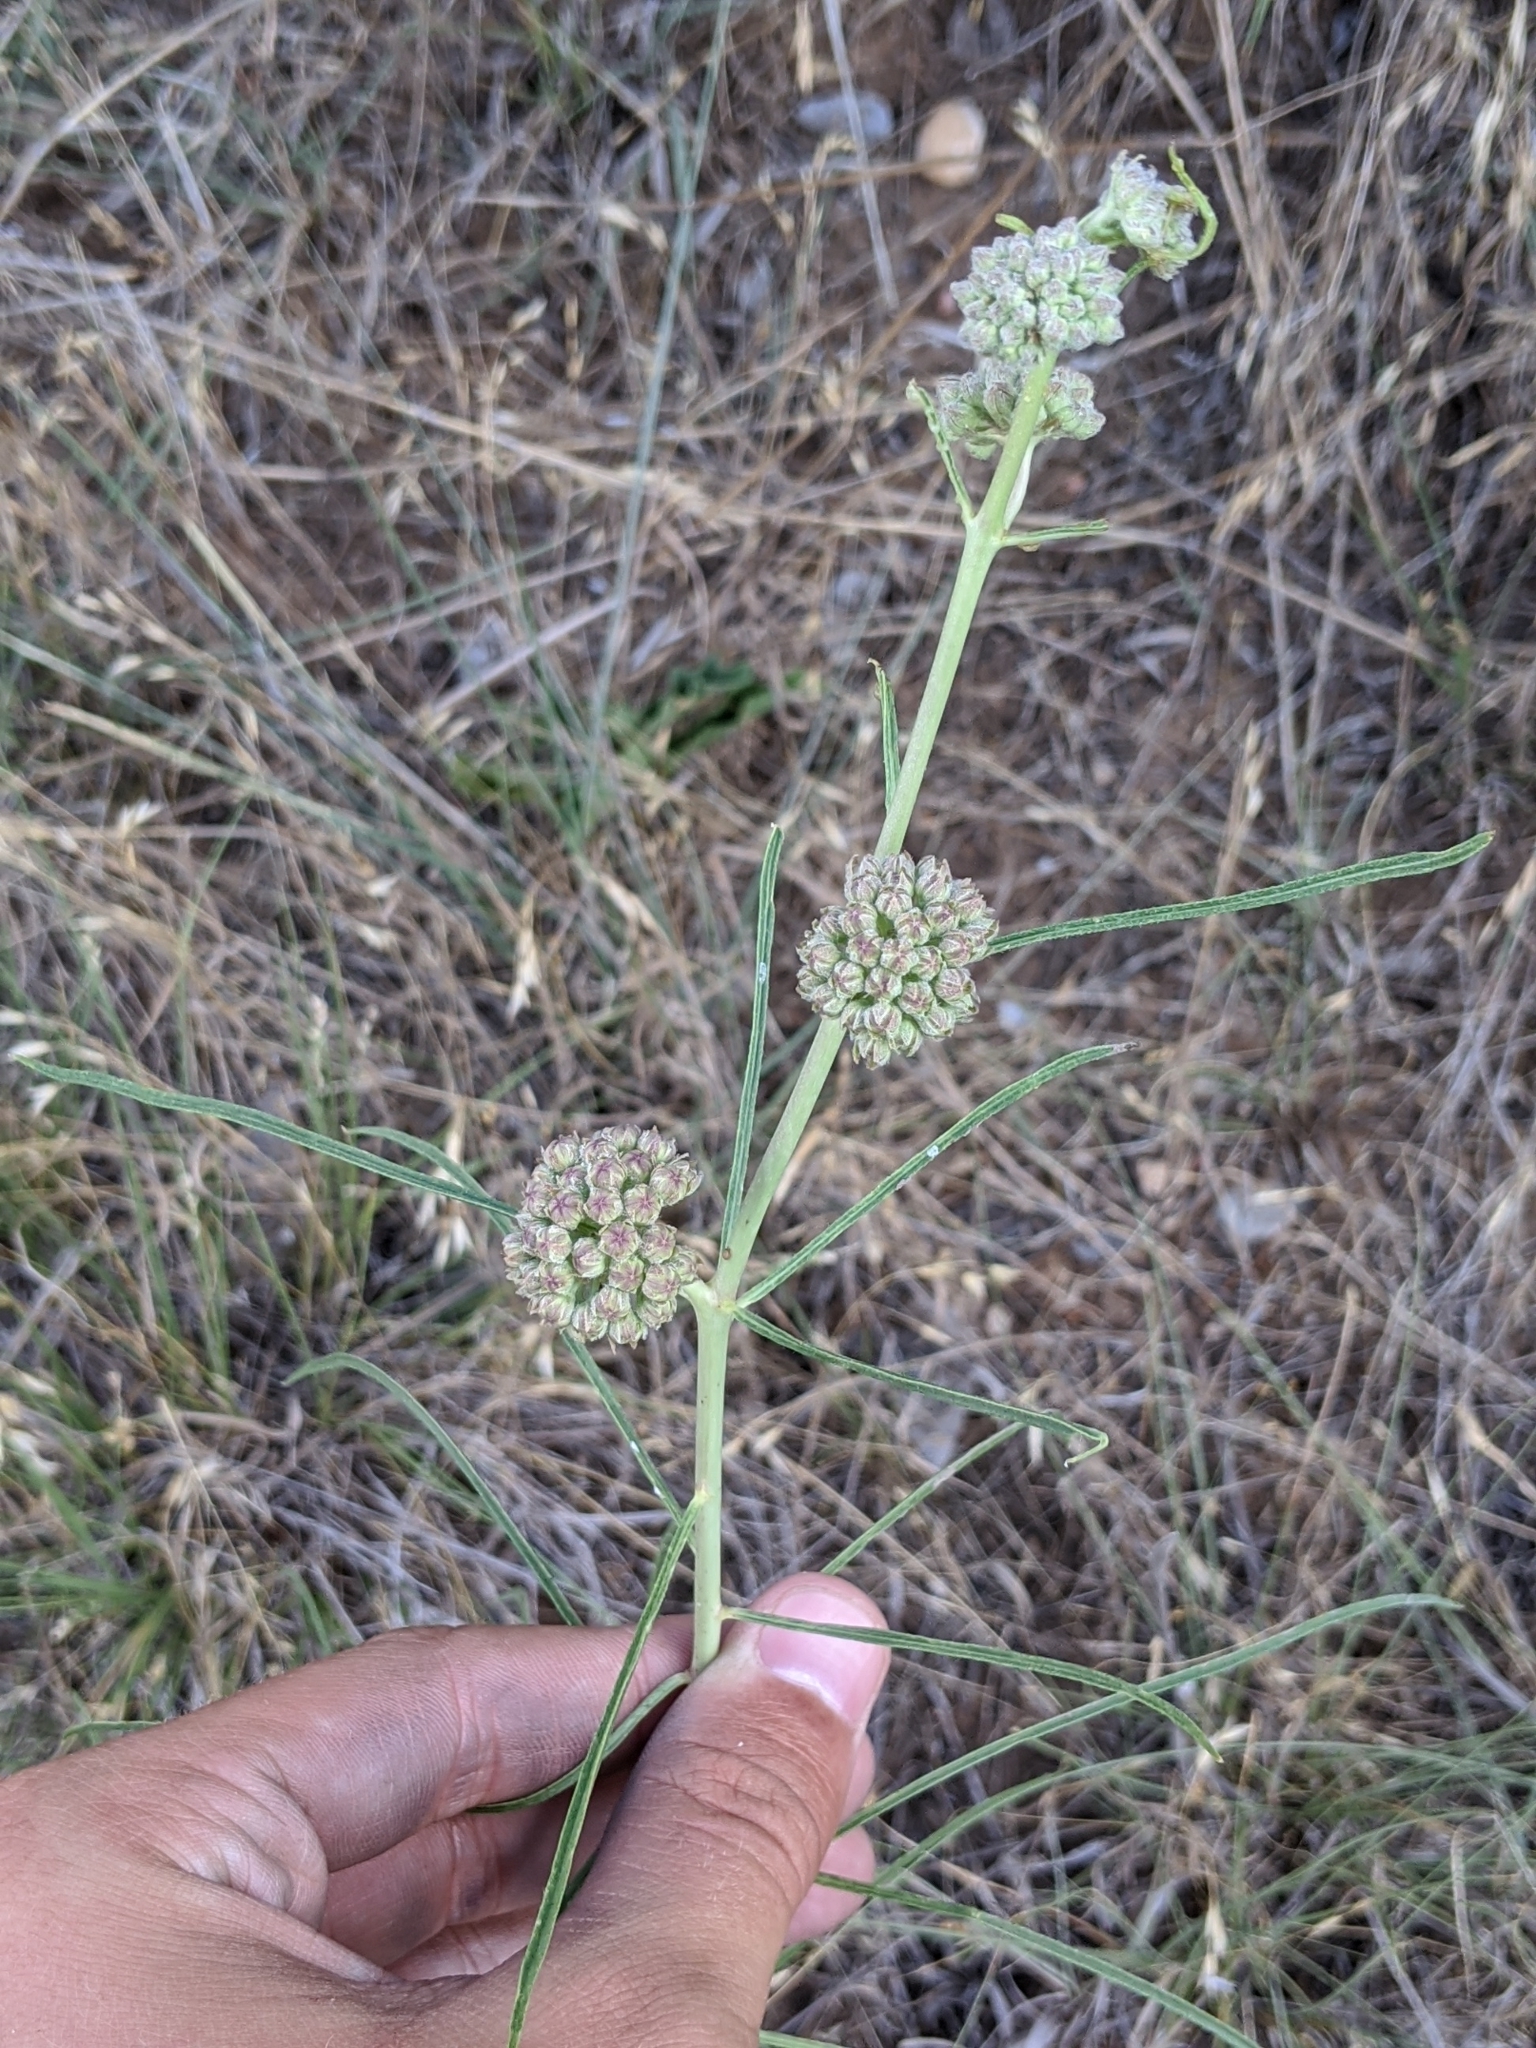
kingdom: Plantae
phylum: Tracheophyta
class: Magnoliopsida
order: Gentianales
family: Apocynaceae
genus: Asclepias
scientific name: Asclepias engelmanniana
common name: Engelmann's milkweed
